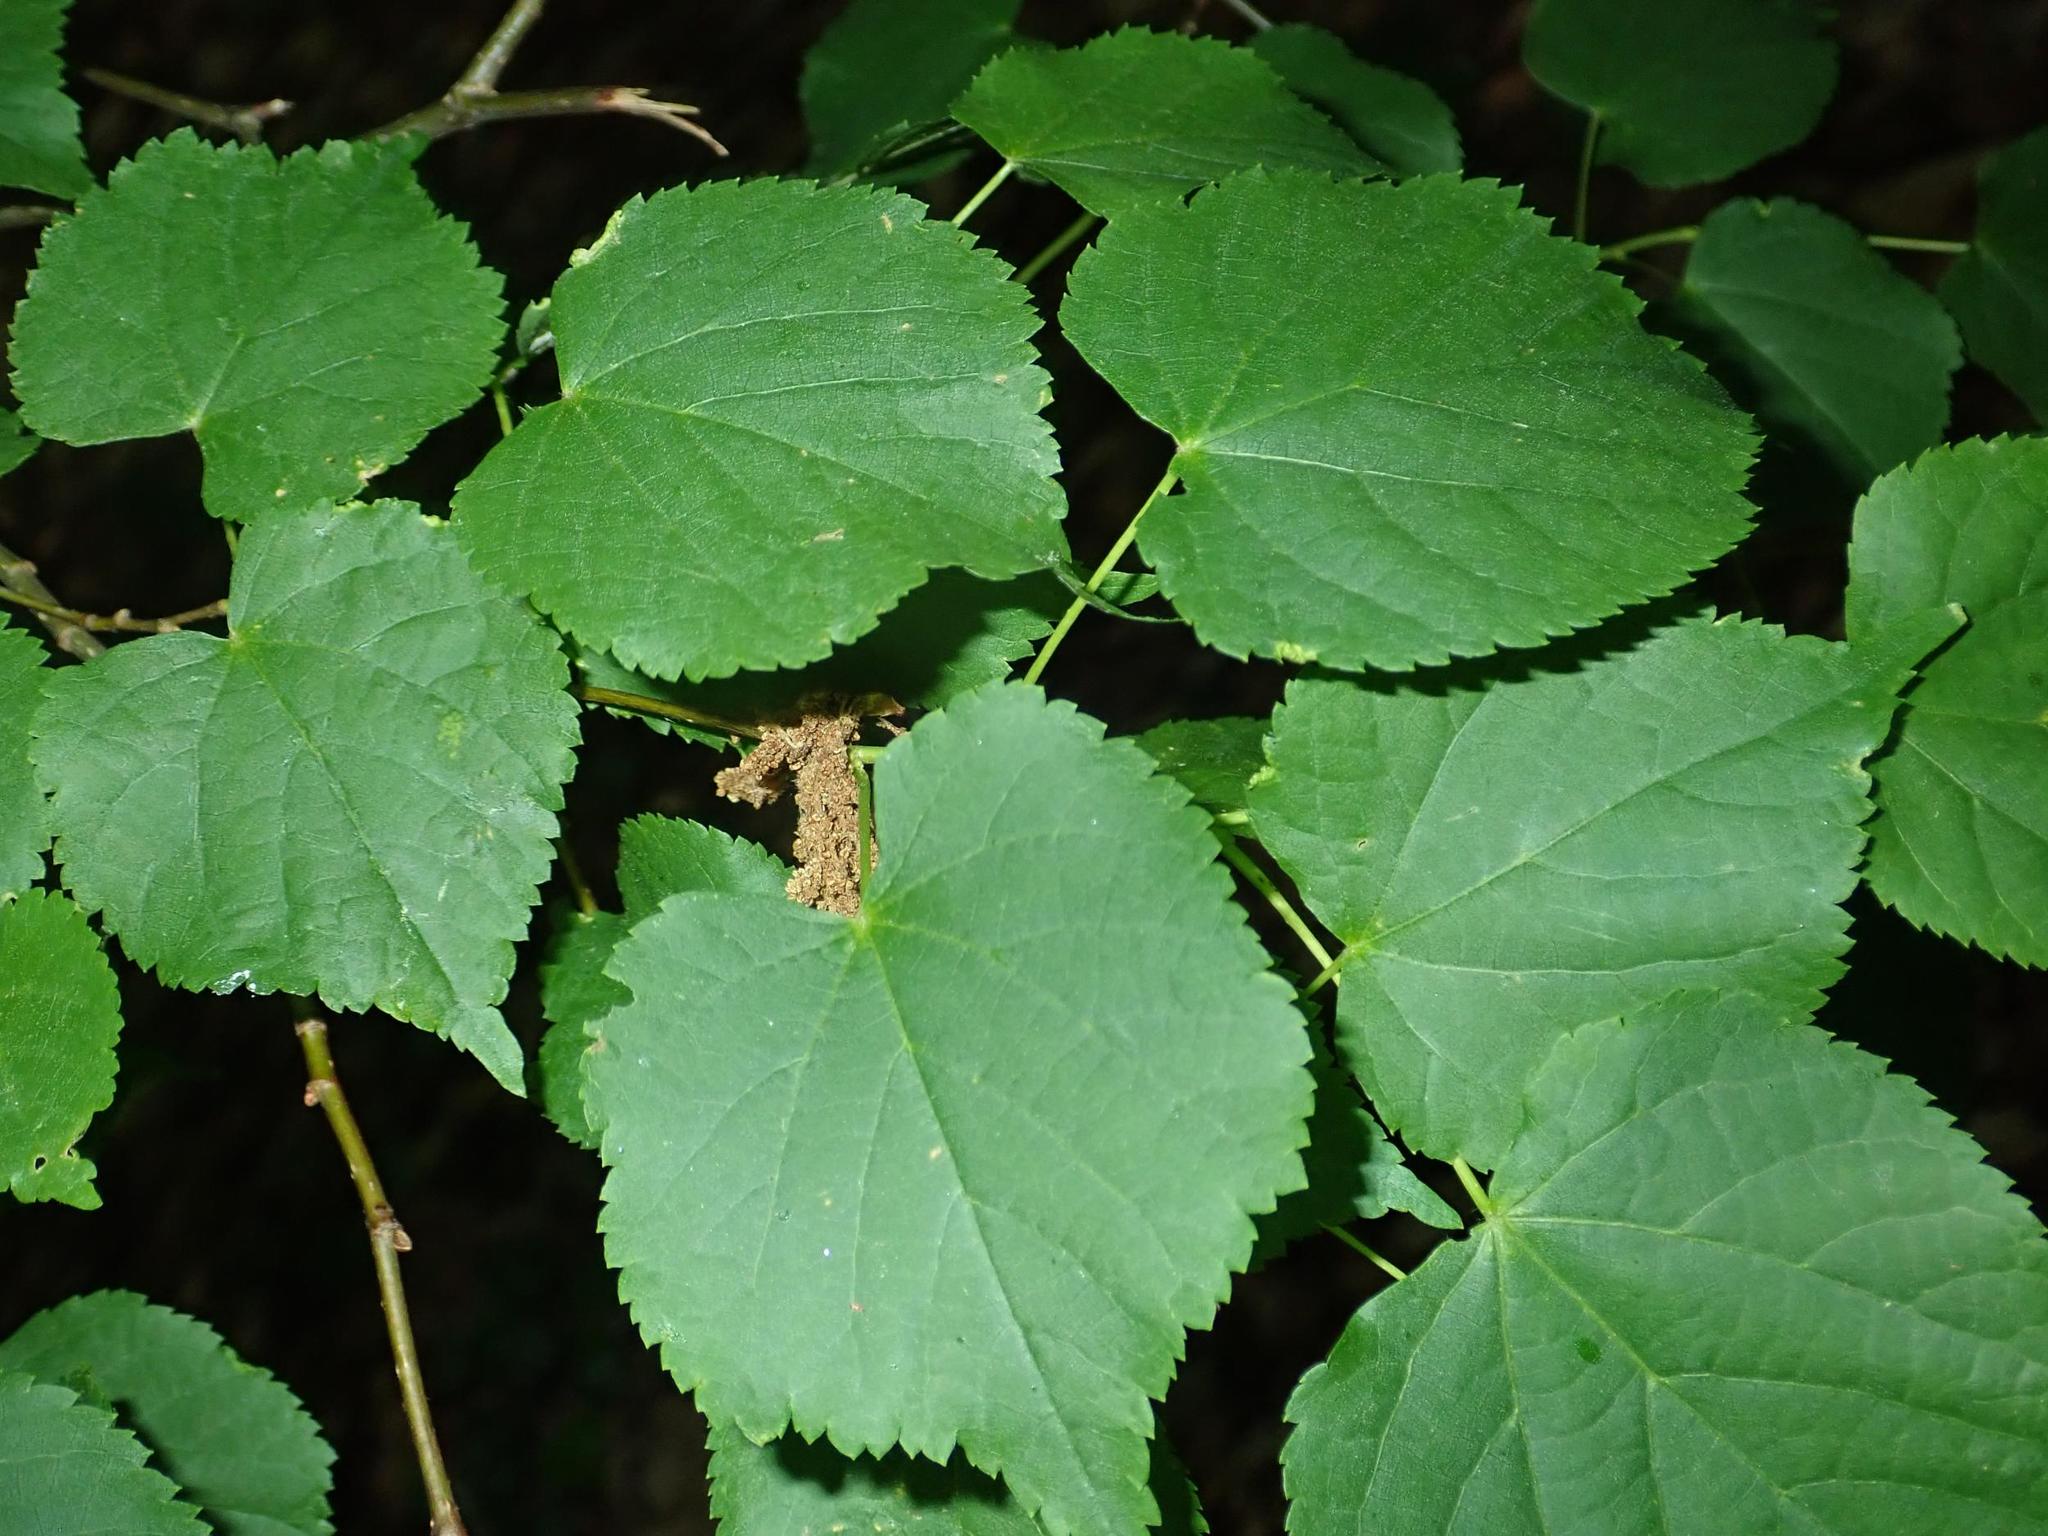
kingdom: Plantae
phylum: Tracheophyta
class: Magnoliopsida
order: Malvales
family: Malvaceae
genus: Tilia
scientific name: Tilia cordata
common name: Small-leaved lime
